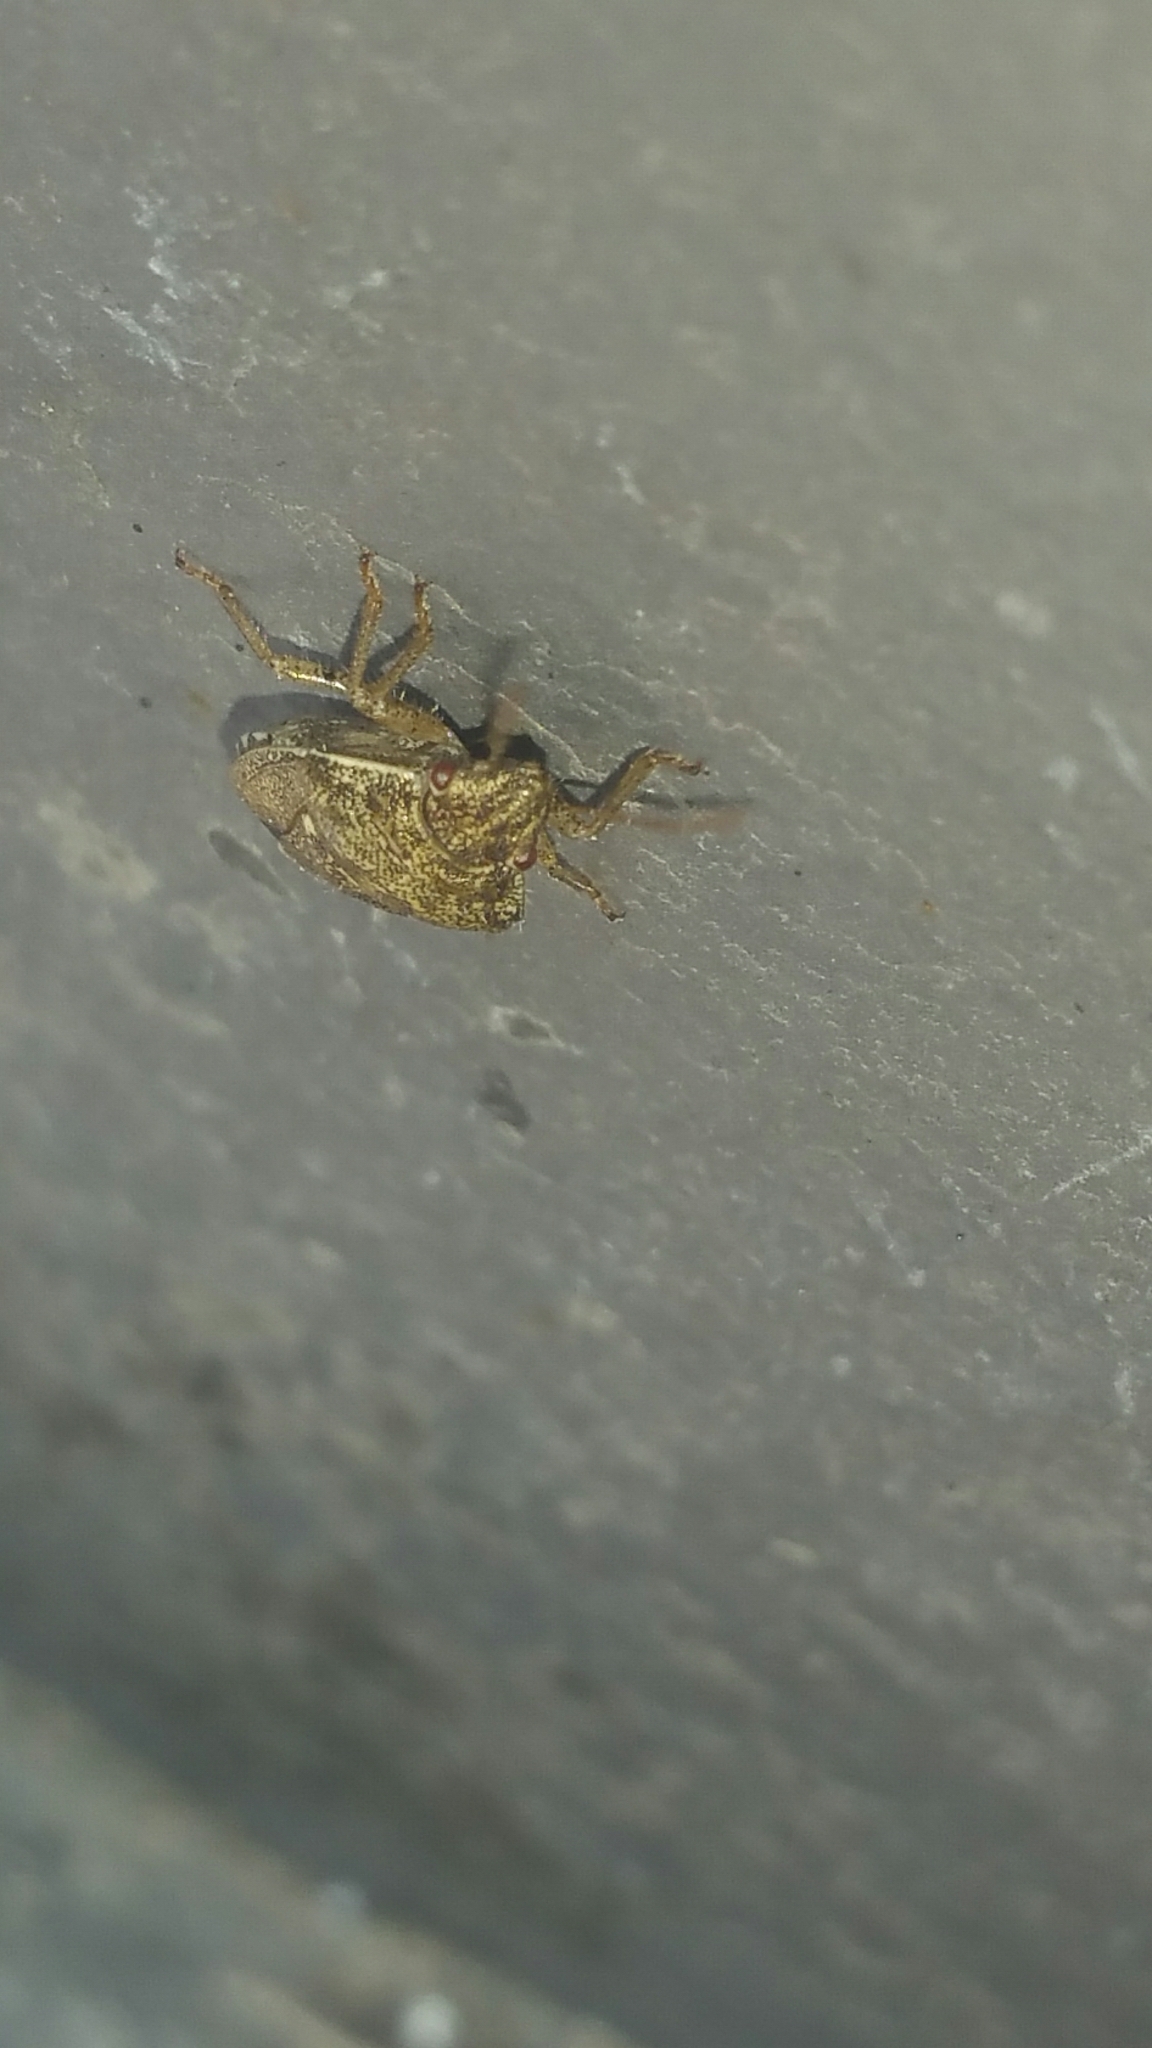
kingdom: Animalia
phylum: Arthropoda
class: Insecta
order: Hemiptera
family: Pentatomidae
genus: Staria
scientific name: Staria lunata
